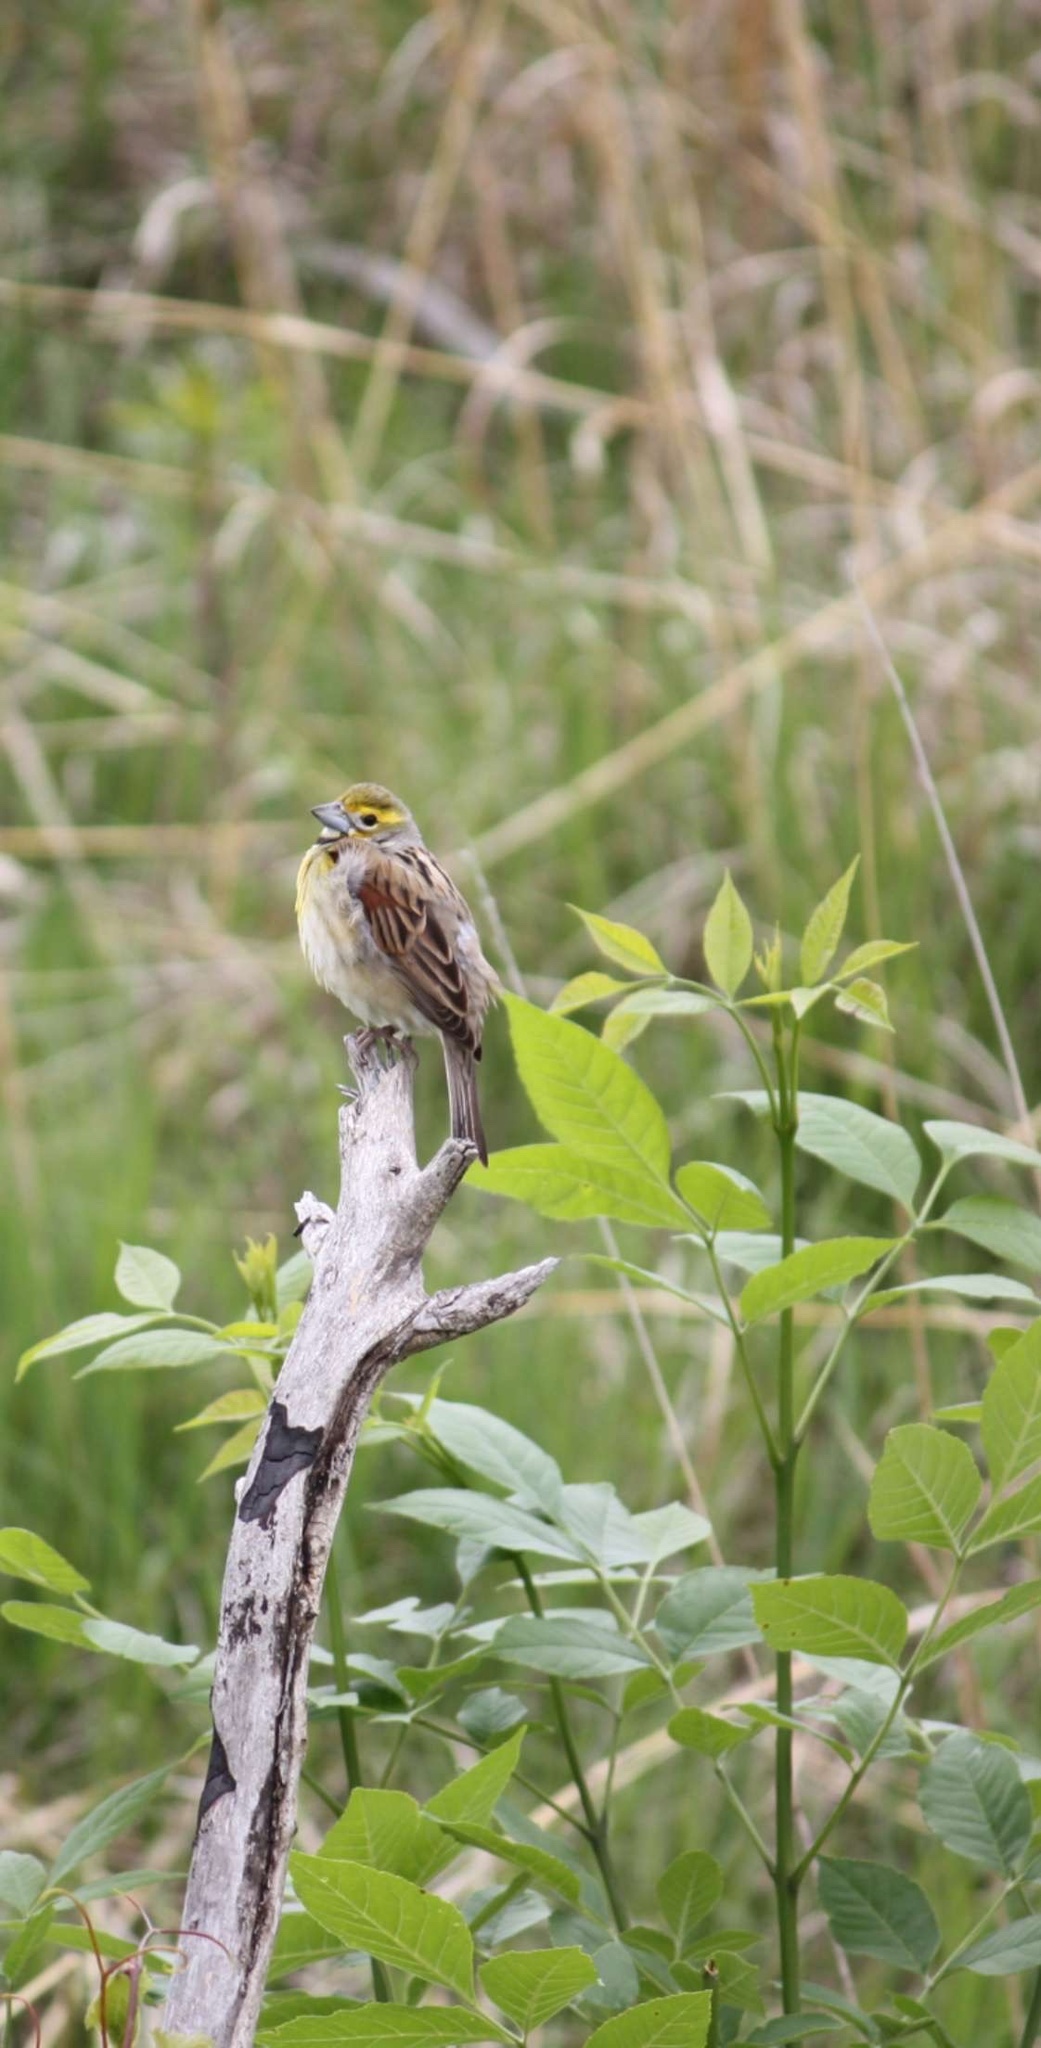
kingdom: Animalia
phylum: Chordata
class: Aves
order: Passeriformes
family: Cardinalidae
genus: Spiza
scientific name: Spiza americana
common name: Dickcissel
